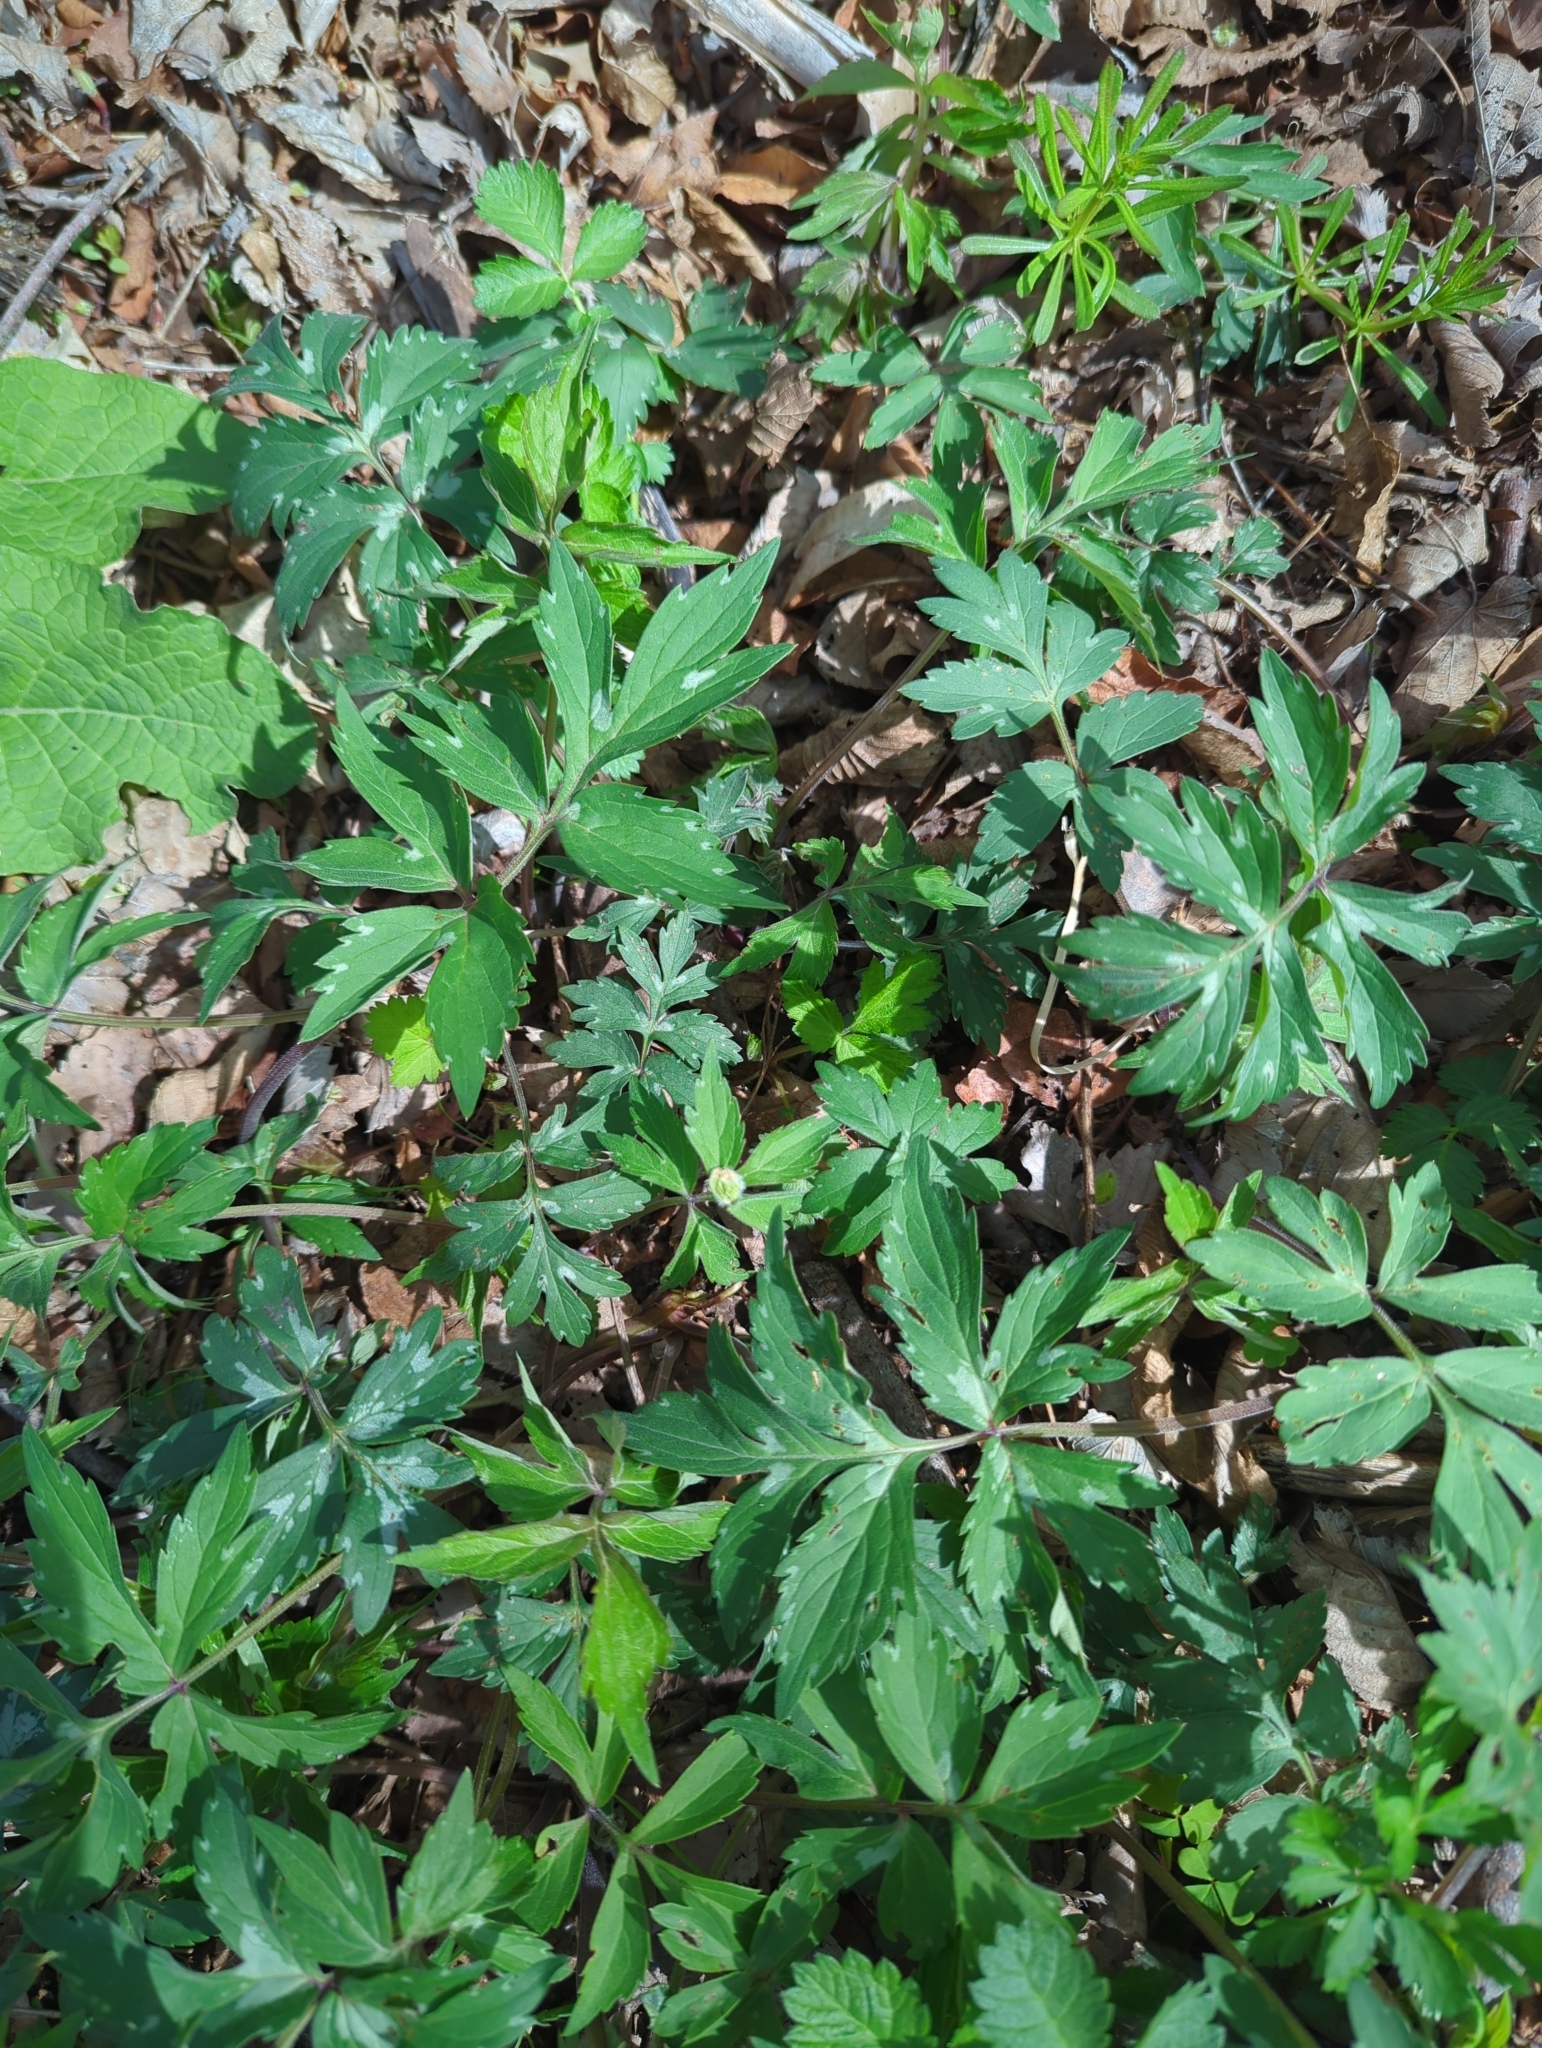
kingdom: Plantae
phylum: Tracheophyta
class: Magnoliopsida
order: Boraginales
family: Hydrophyllaceae
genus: Hydrophyllum
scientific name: Hydrophyllum virginianum
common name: Virginia waterleaf
